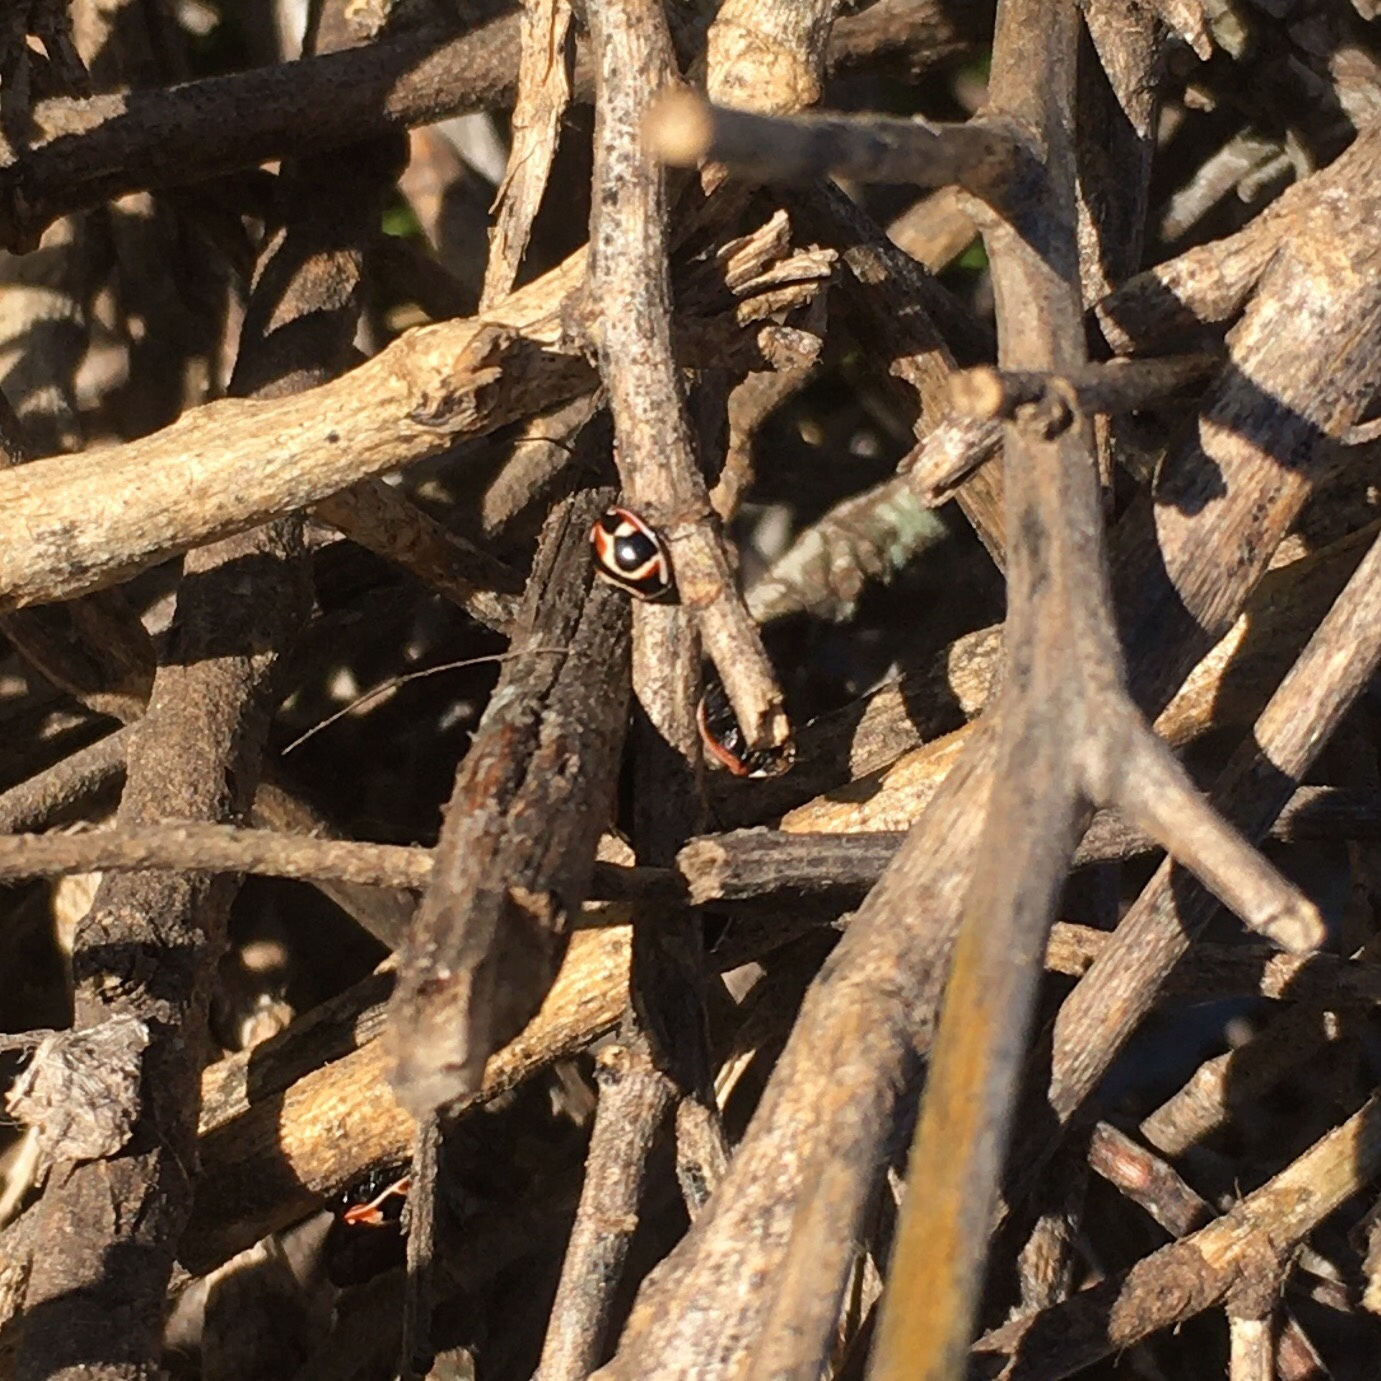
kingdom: Animalia
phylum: Arthropoda
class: Insecta
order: Coleoptera
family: Coccinellidae
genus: Cycloneda
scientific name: Cycloneda ancoralis
